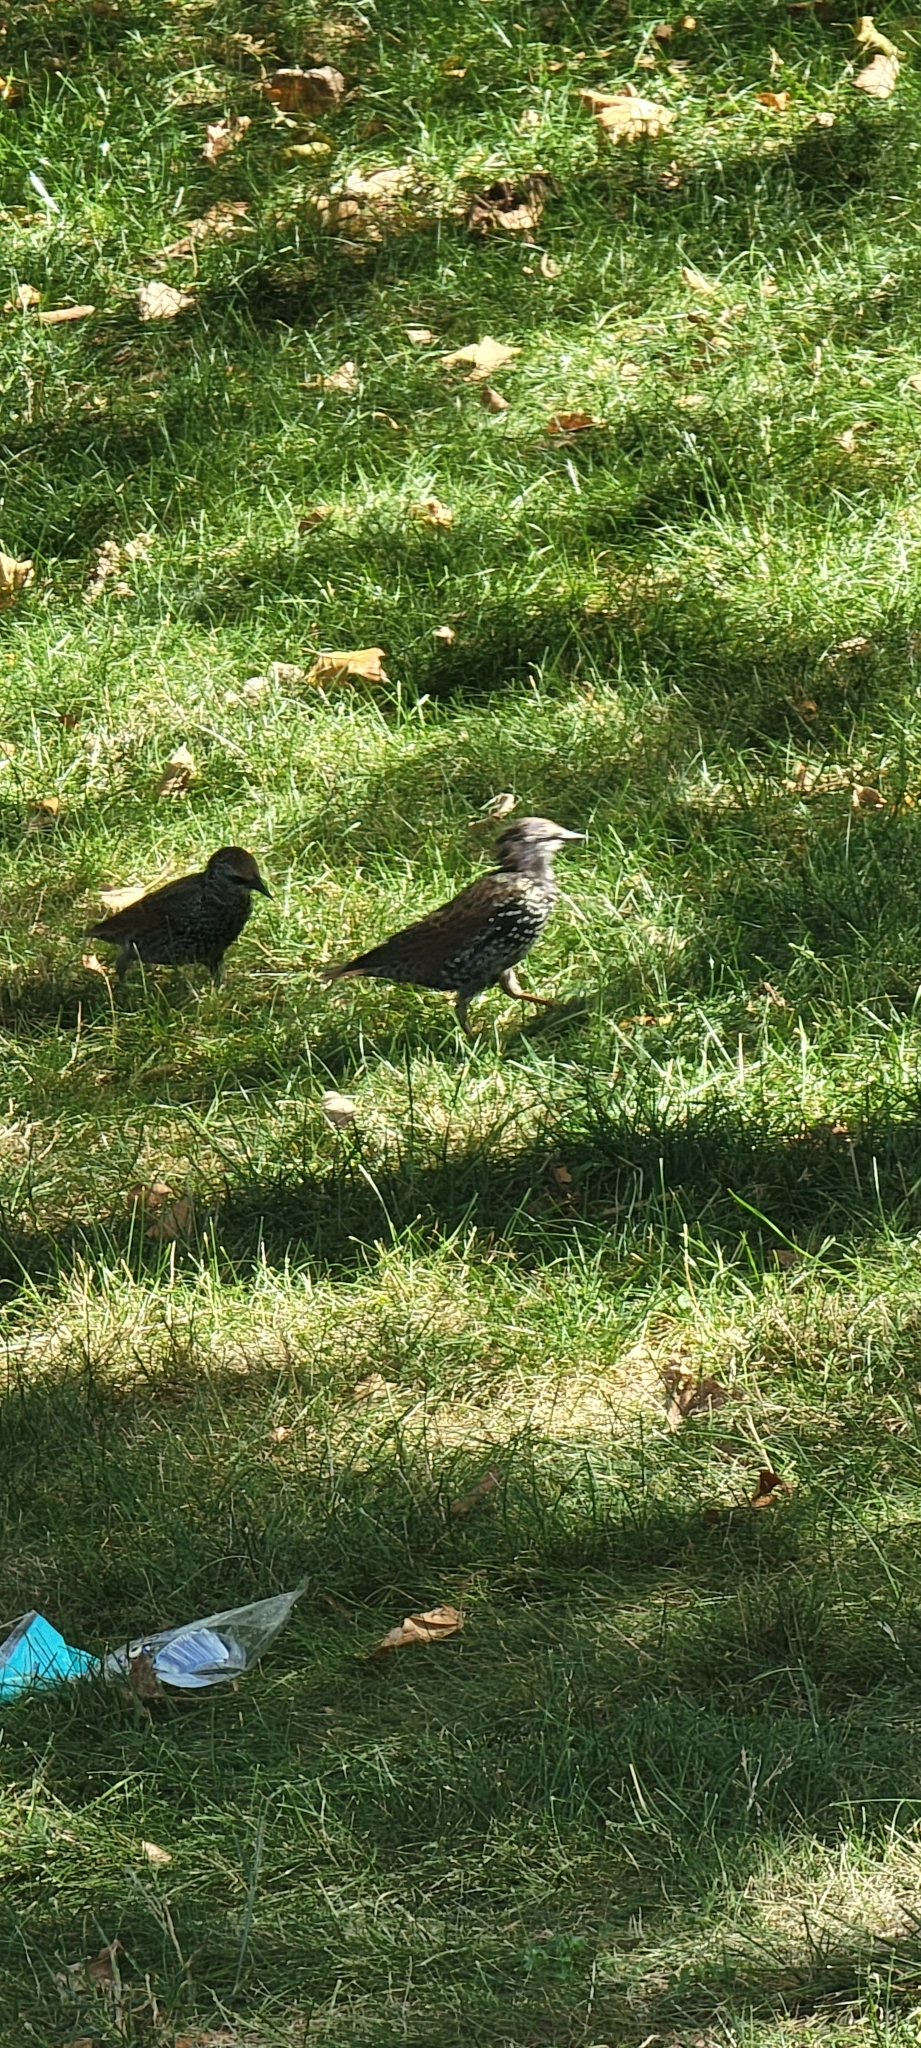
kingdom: Animalia
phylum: Chordata
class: Aves
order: Passeriformes
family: Sturnidae
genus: Sturnus
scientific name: Sturnus vulgaris
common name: Common starling
